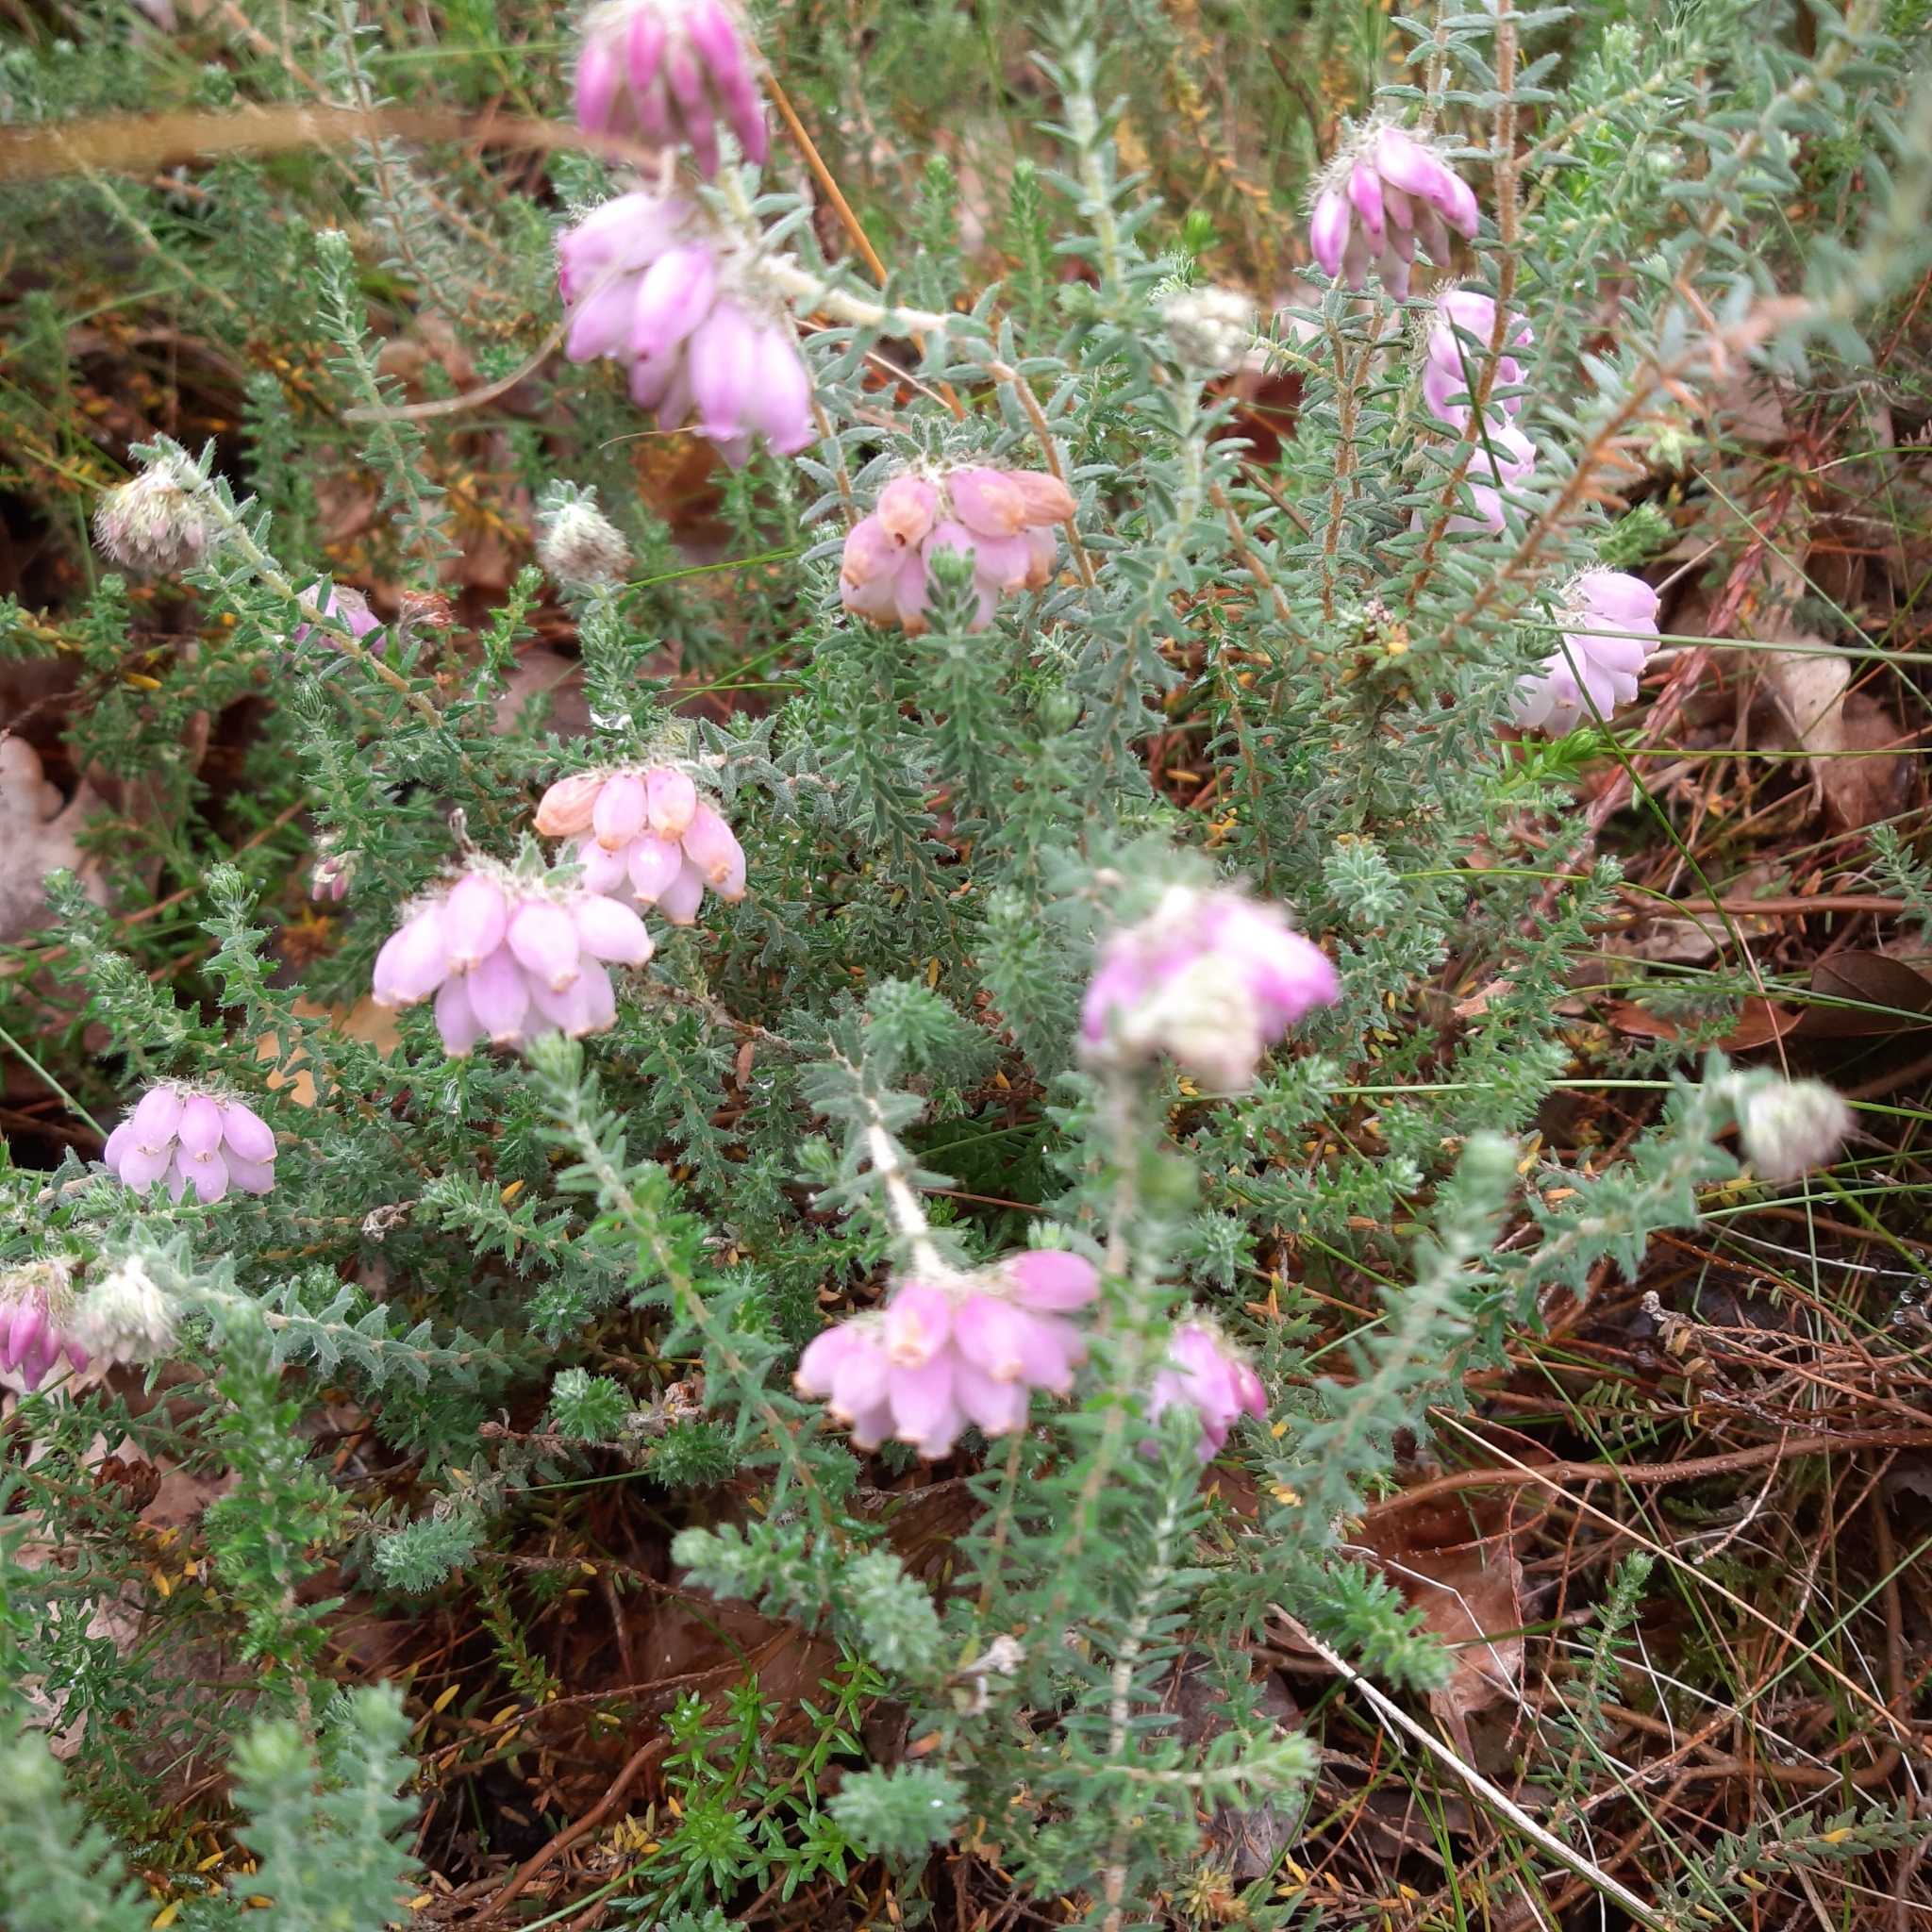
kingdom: Plantae
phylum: Tracheophyta
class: Magnoliopsida
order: Ericales
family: Ericaceae
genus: Erica
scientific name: Erica tetralix
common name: Cross-leaved heath
